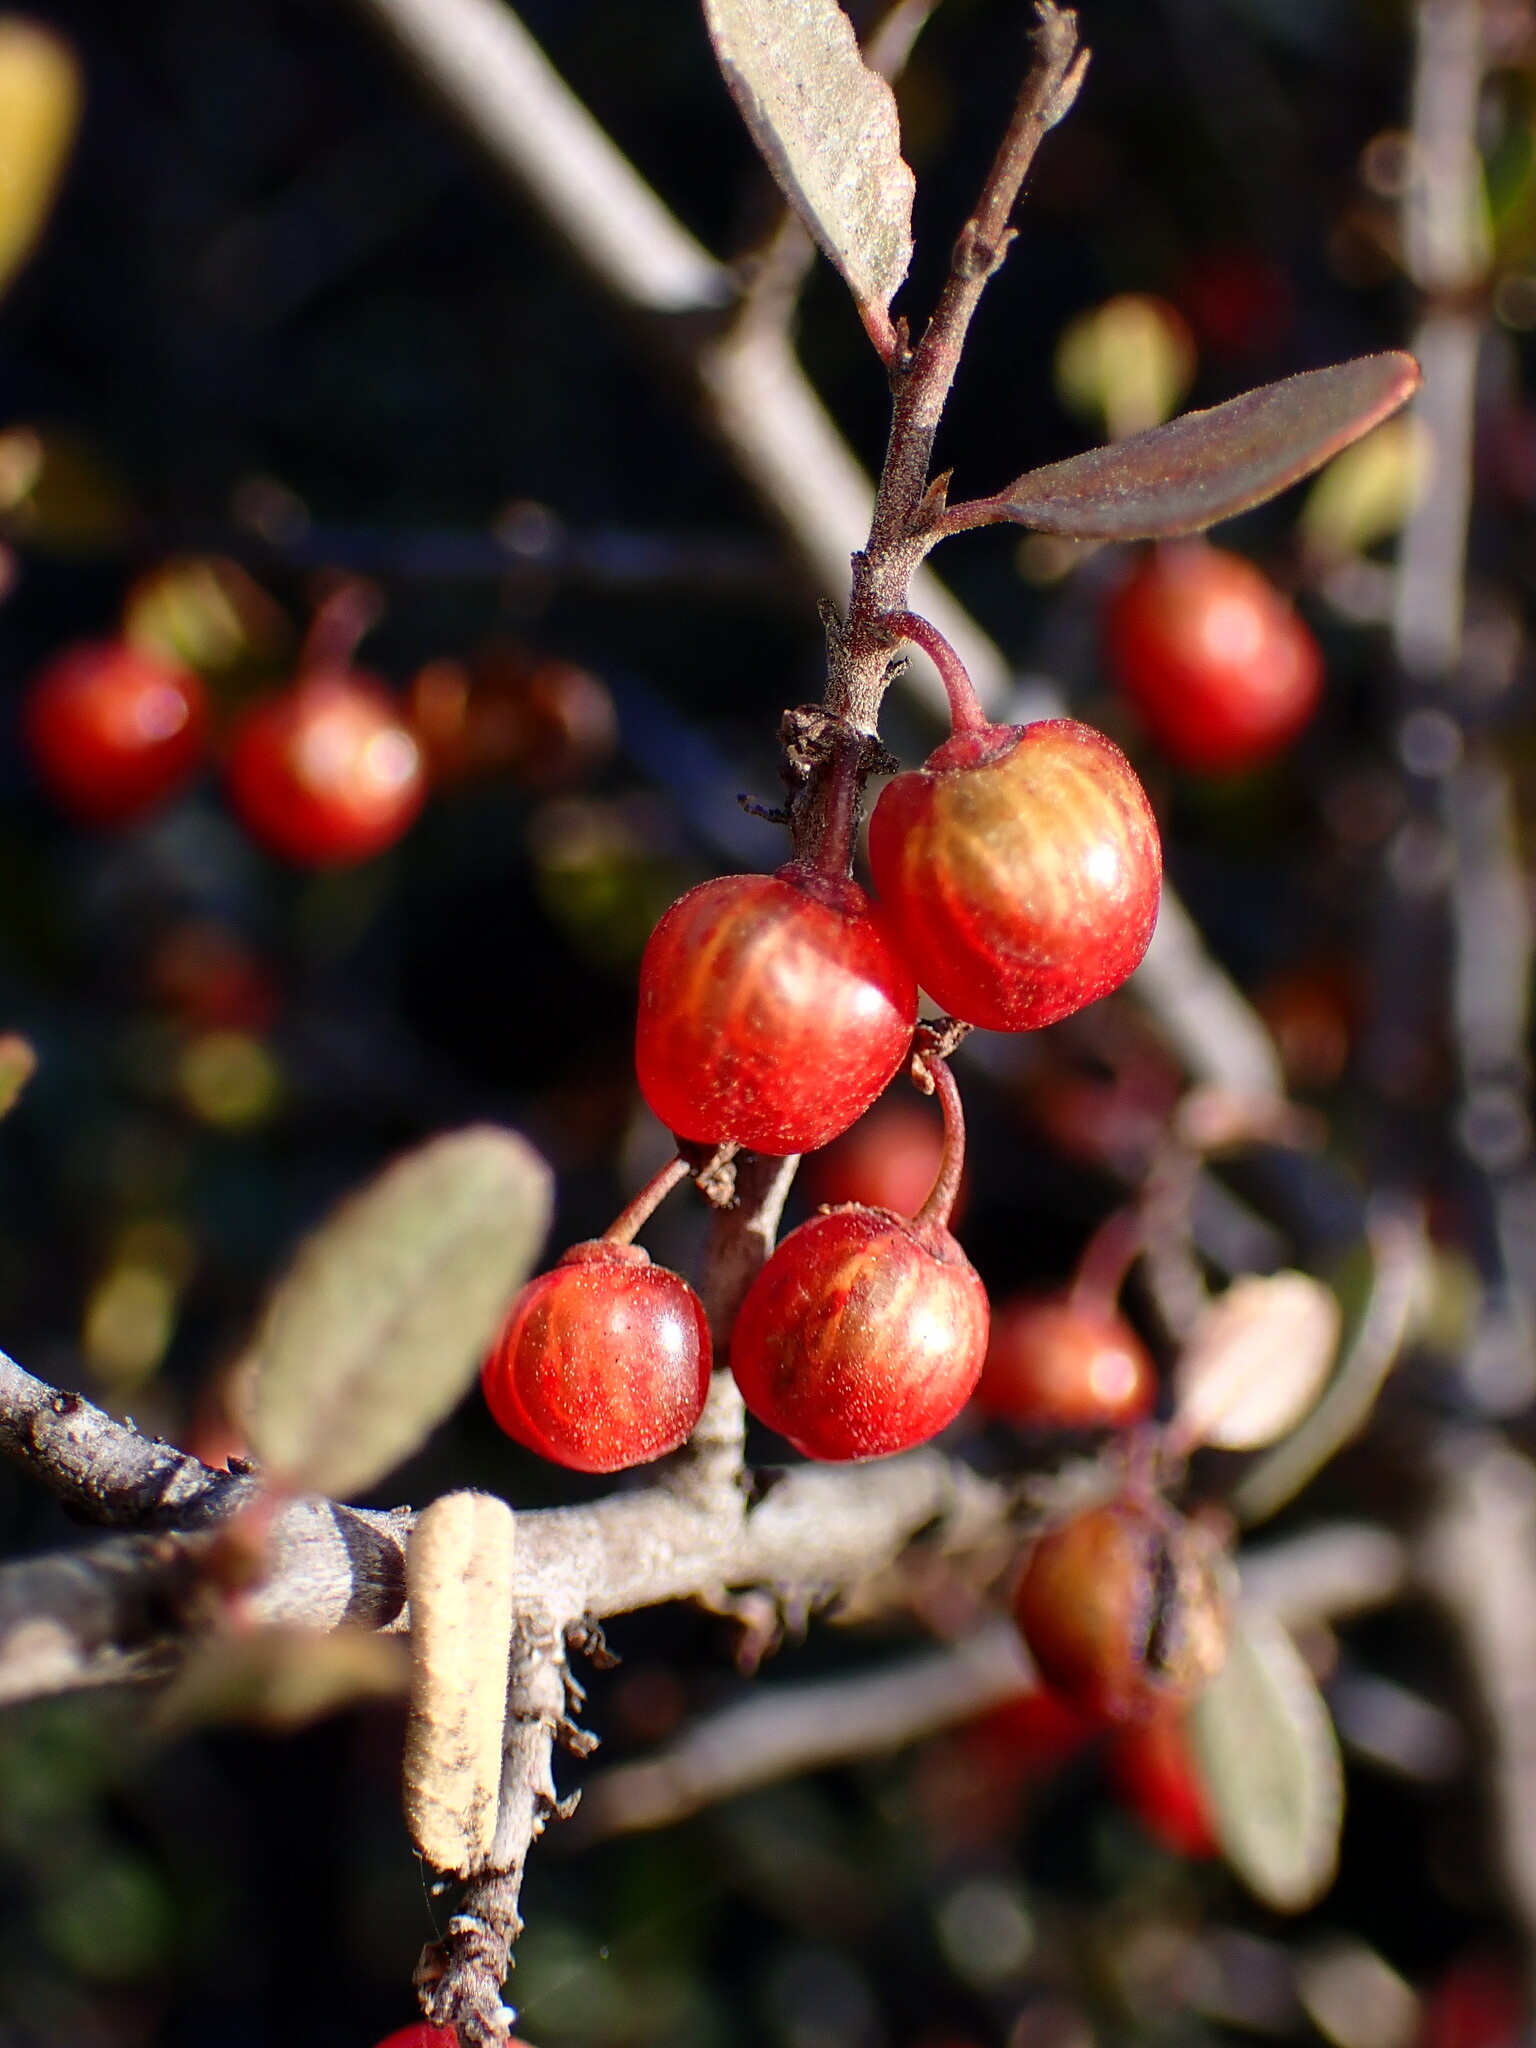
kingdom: Plantae
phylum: Tracheophyta
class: Magnoliopsida
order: Rosales
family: Rhamnaceae
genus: Endotropis
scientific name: Endotropis crocea
